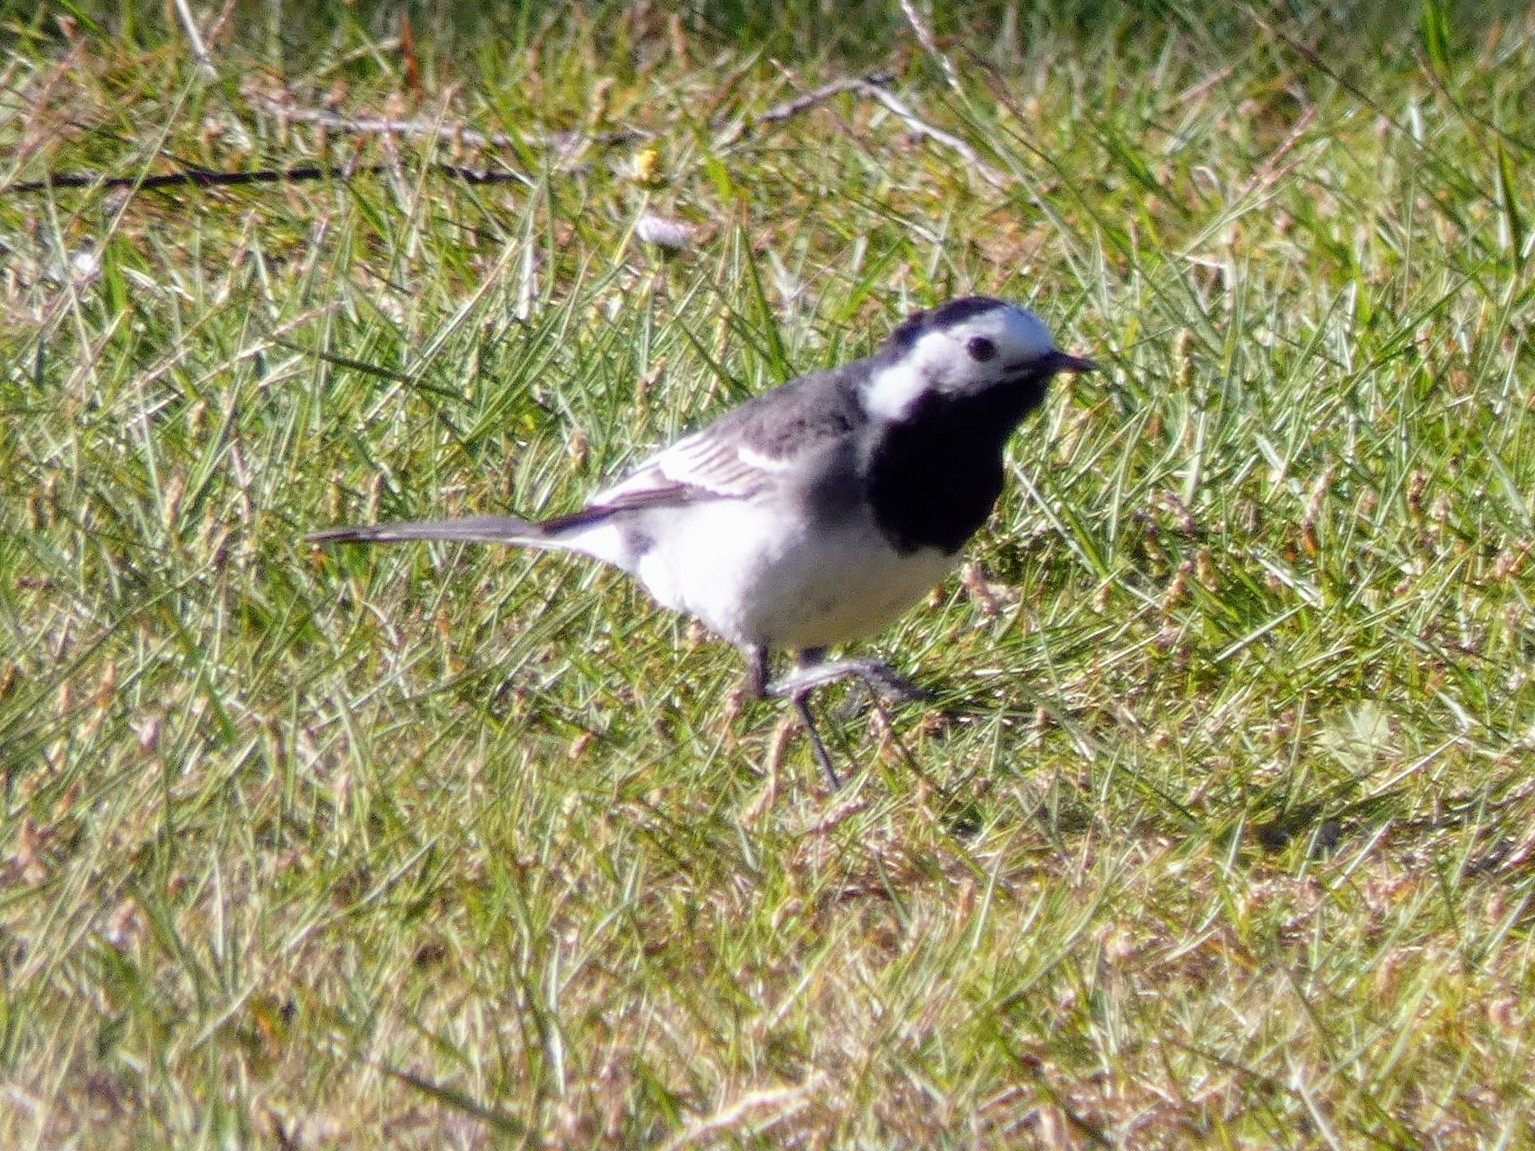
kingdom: Animalia
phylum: Chordata
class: Aves
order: Passeriformes
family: Motacillidae
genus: Motacilla
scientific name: Motacilla alba
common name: White wagtail
